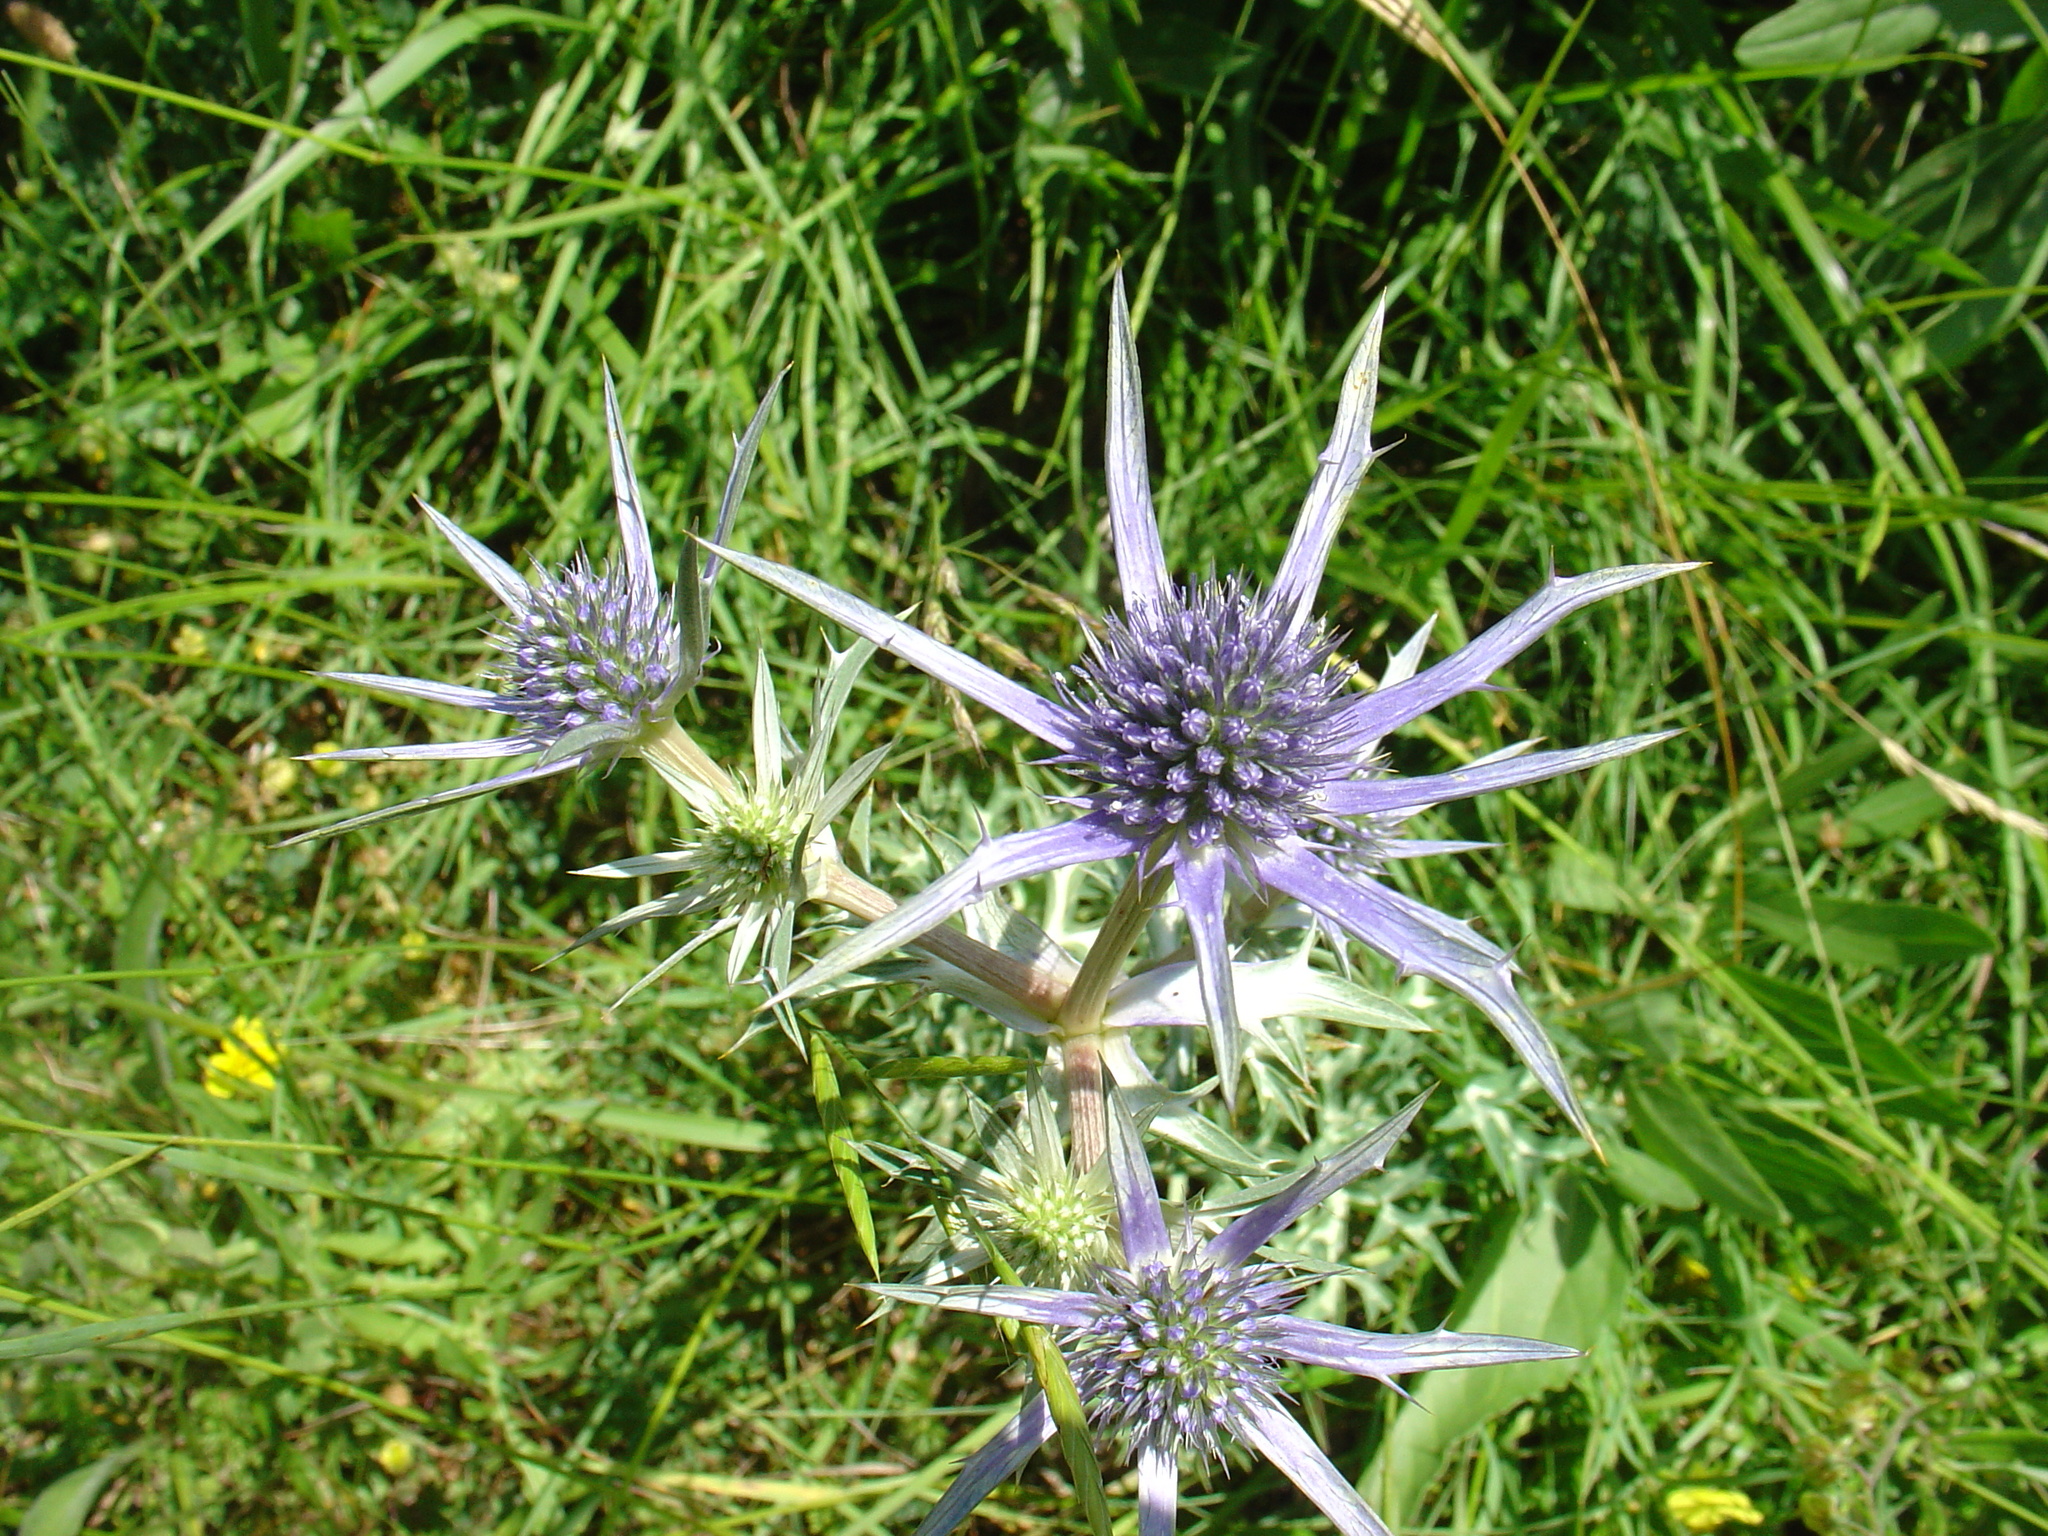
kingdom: Plantae
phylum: Tracheophyta
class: Magnoliopsida
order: Apiales
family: Apiaceae
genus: Eryngium
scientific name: Eryngium bourgatii
